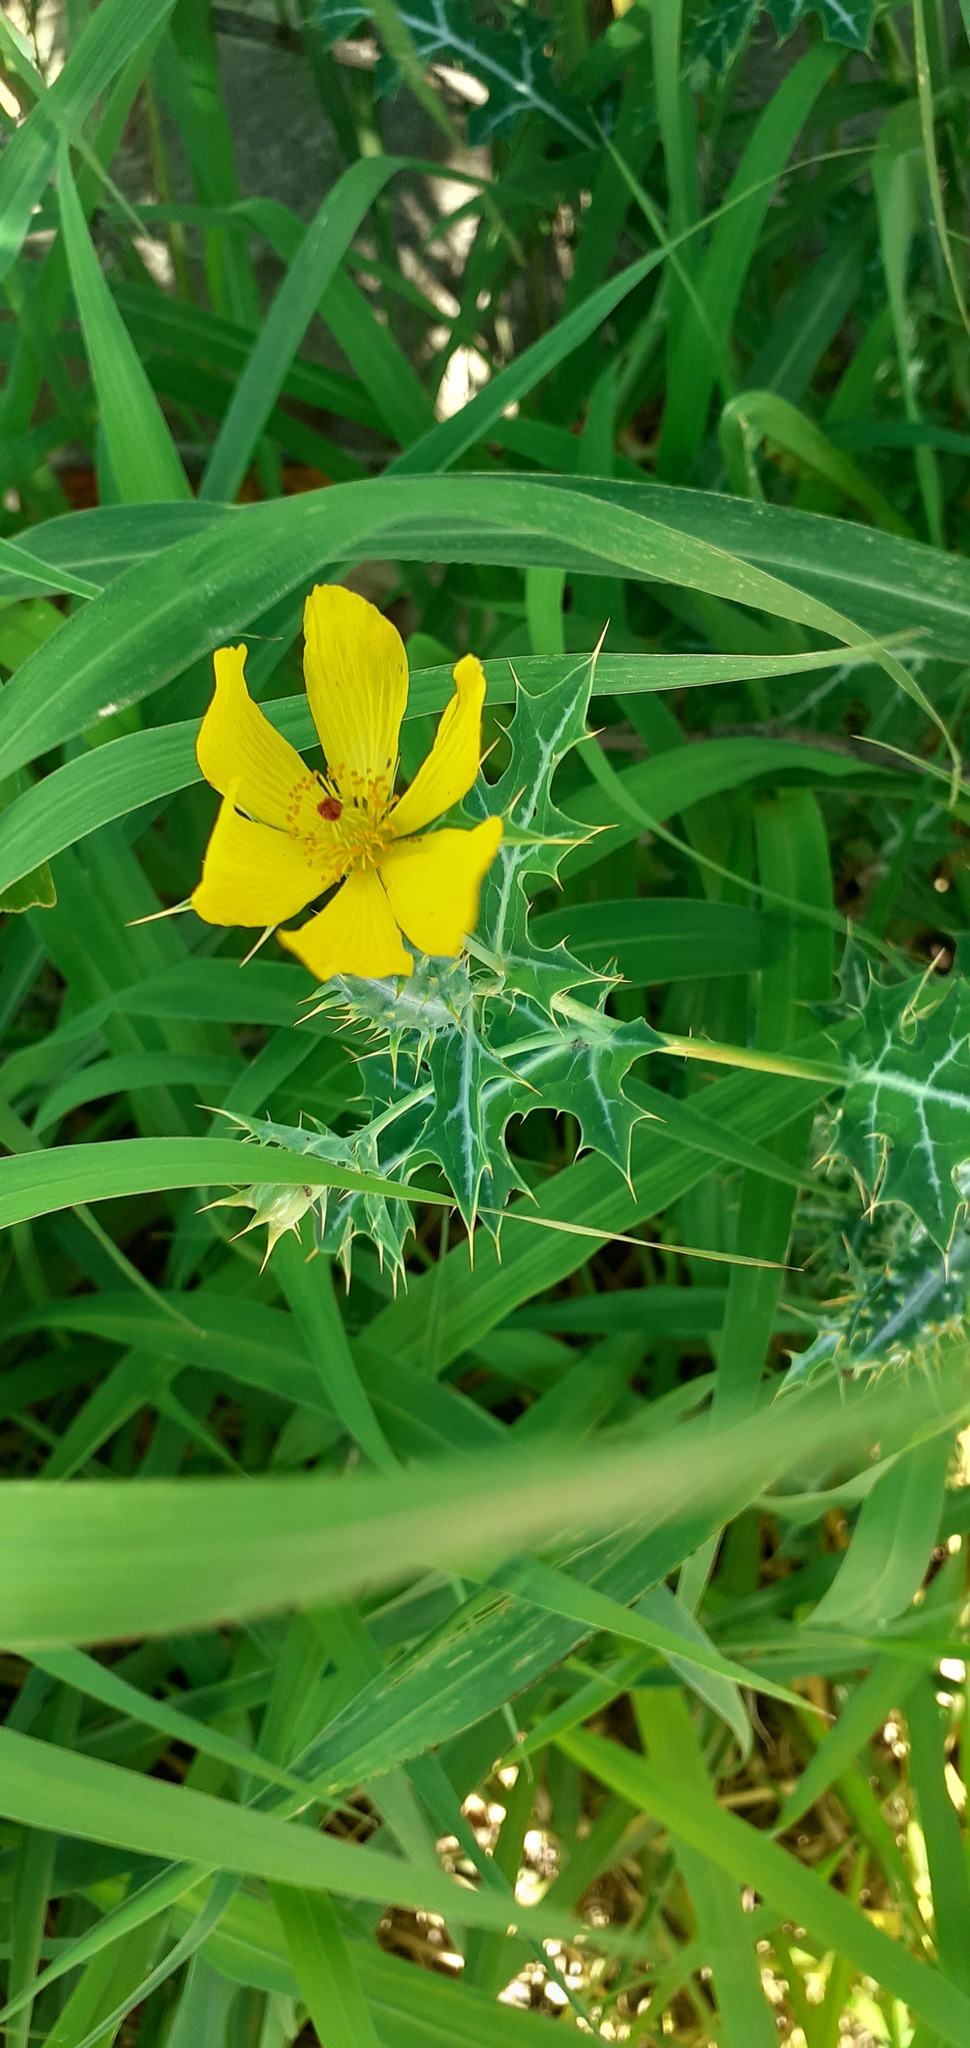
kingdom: Plantae
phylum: Tracheophyta
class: Magnoliopsida
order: Ranunculales
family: Papaveraceae
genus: Argemone
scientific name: Argemone mexicana
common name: Mexican poppy
